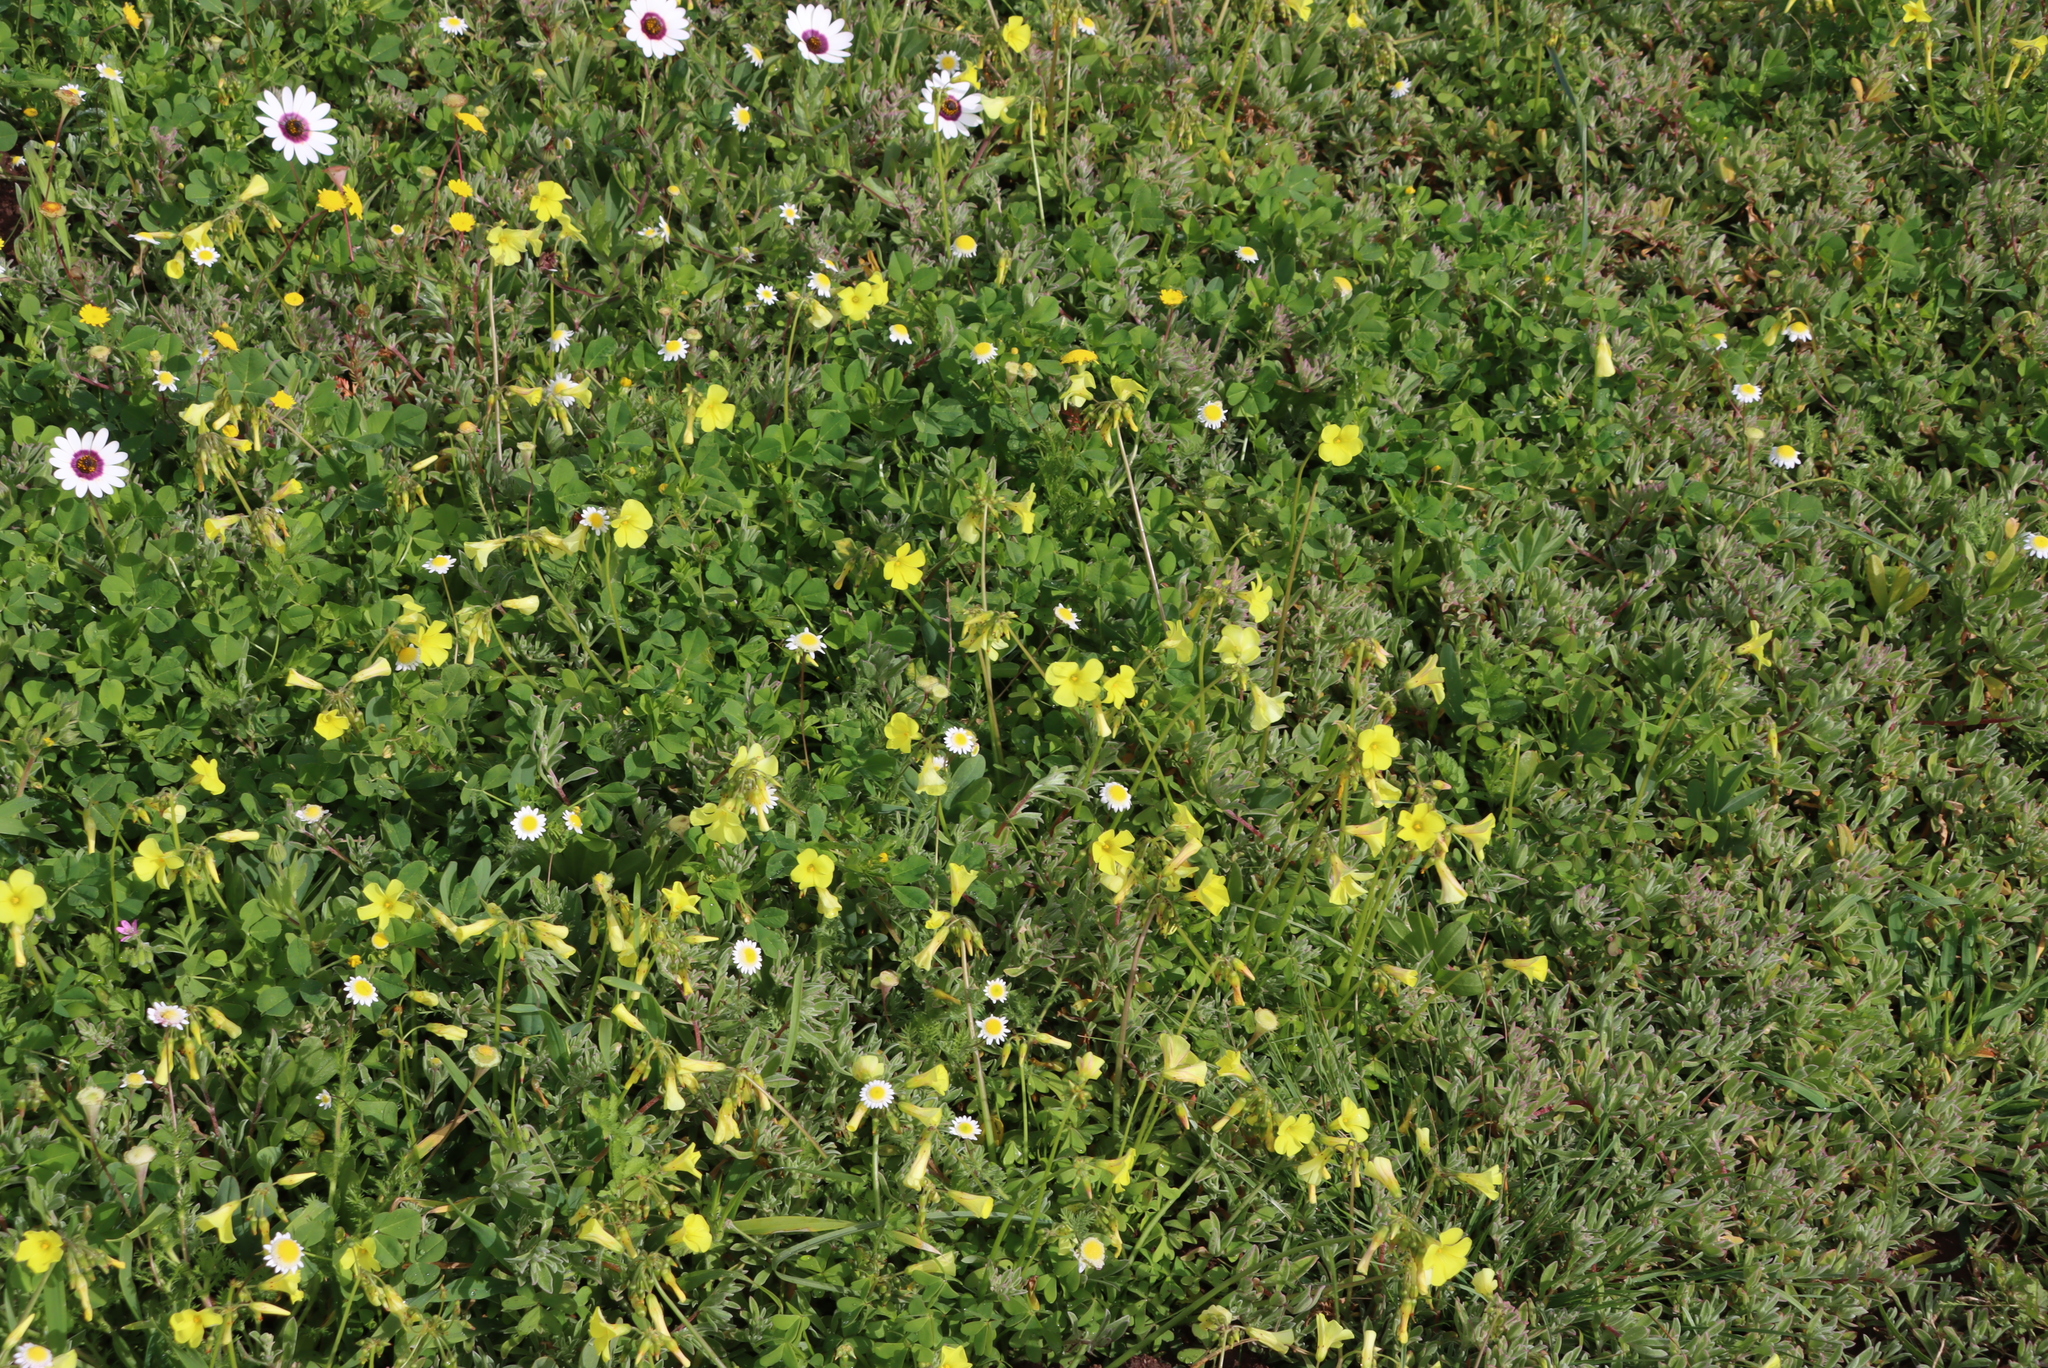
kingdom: Plantae
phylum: Tracheophyta
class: Magnoliopsida
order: Oxalidales
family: Oxalidaceae
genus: Oxalis
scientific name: Oxalis pes-caprae
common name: Bermuda-buttercup
